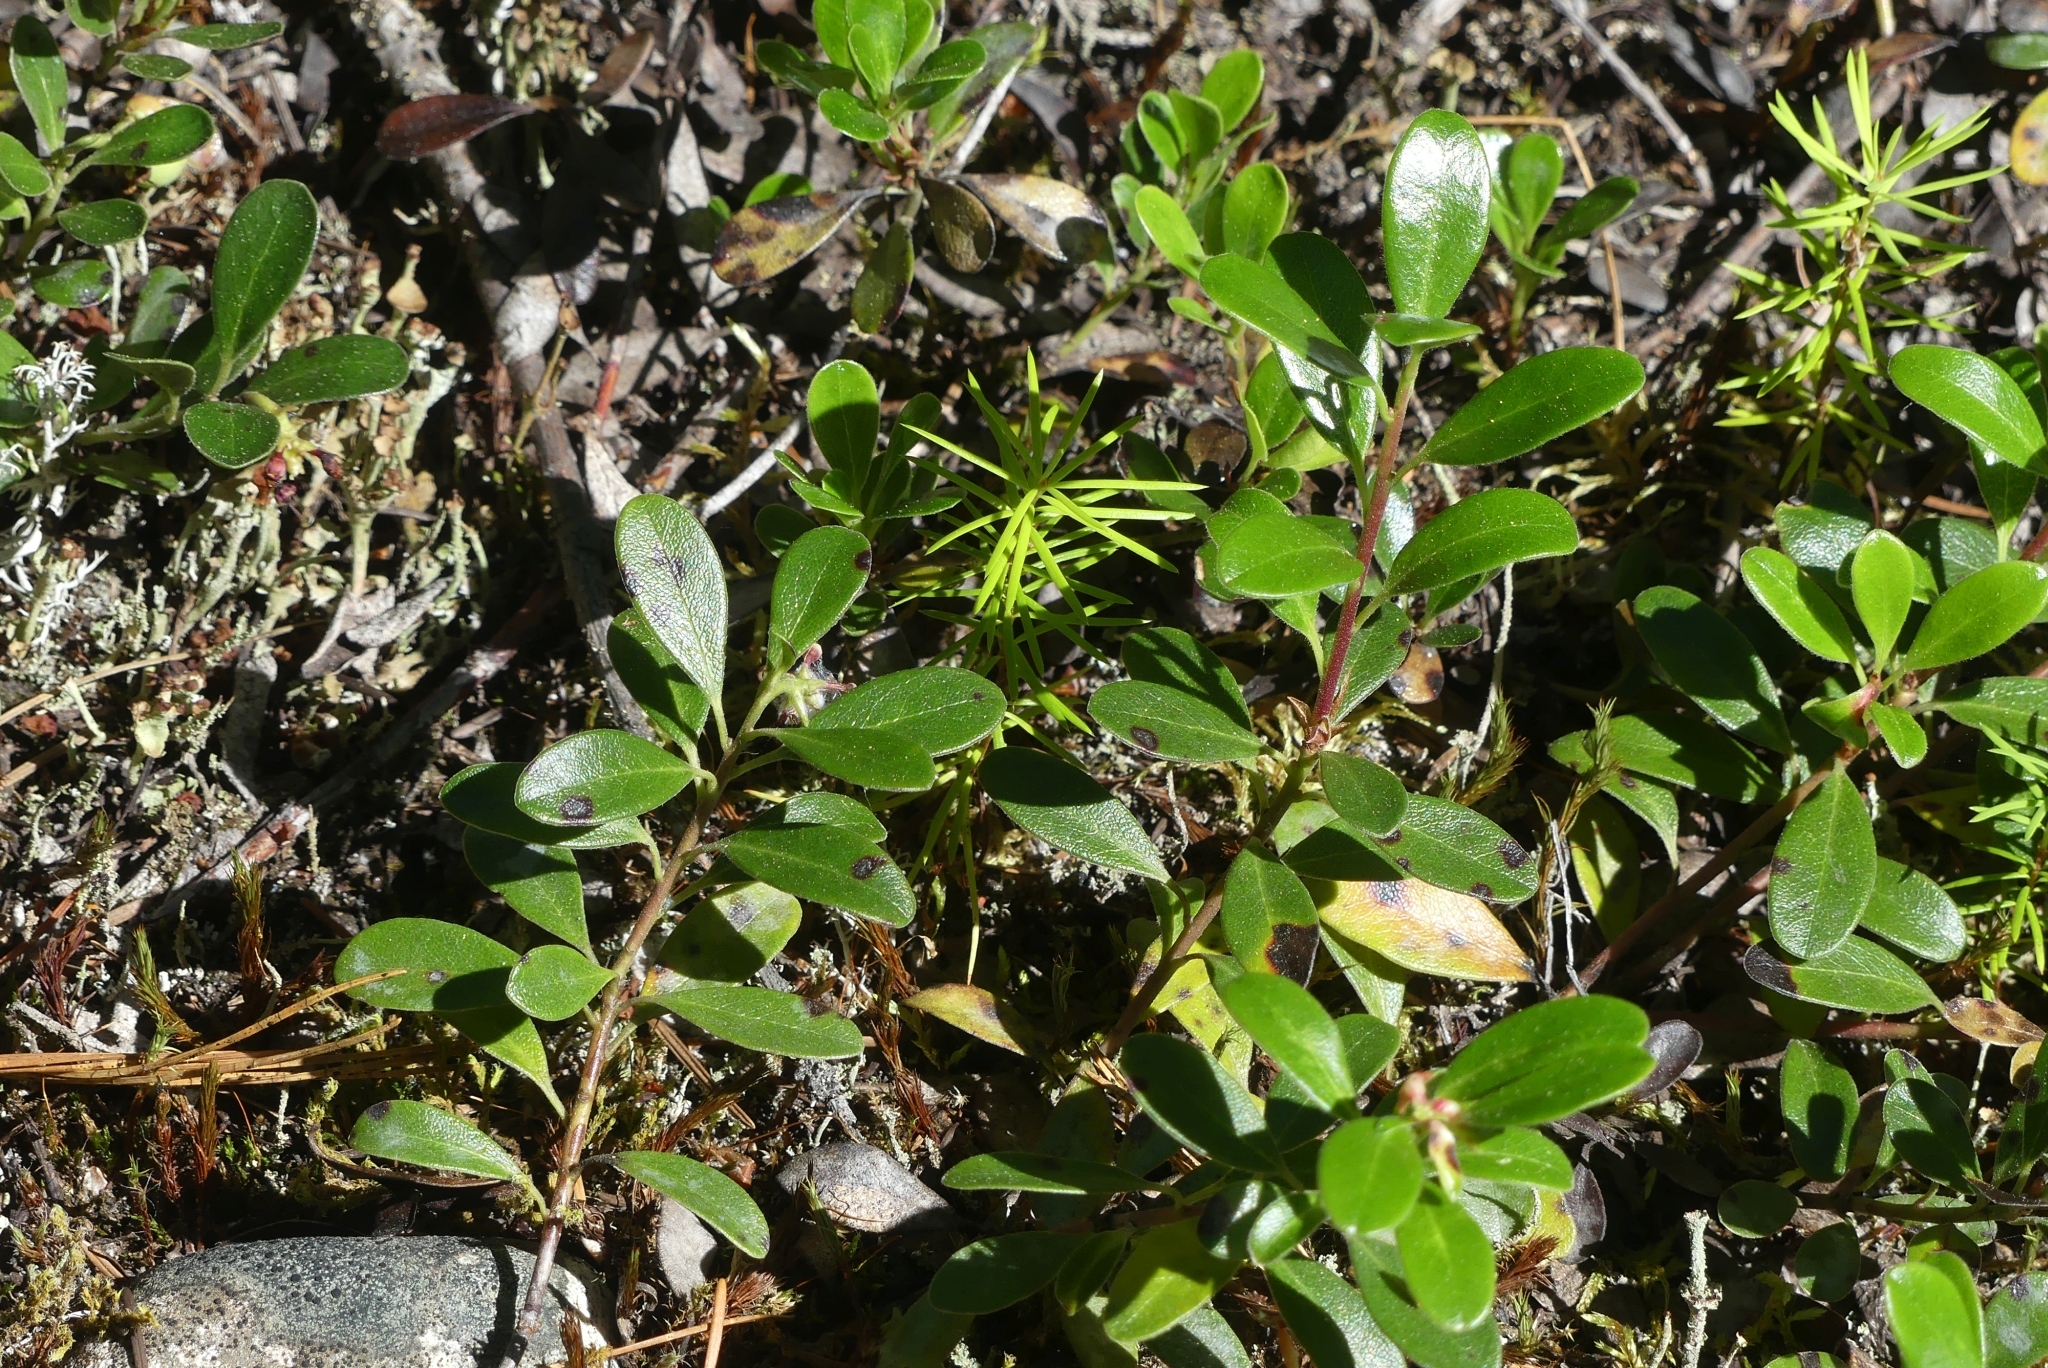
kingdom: Plantae
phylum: Tracheophyta
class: Magnoliopsida
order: Ericales
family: Ericaceae
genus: Arctostaphylos
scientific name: Arctostaphylos uva-ursi
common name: Bearberry
